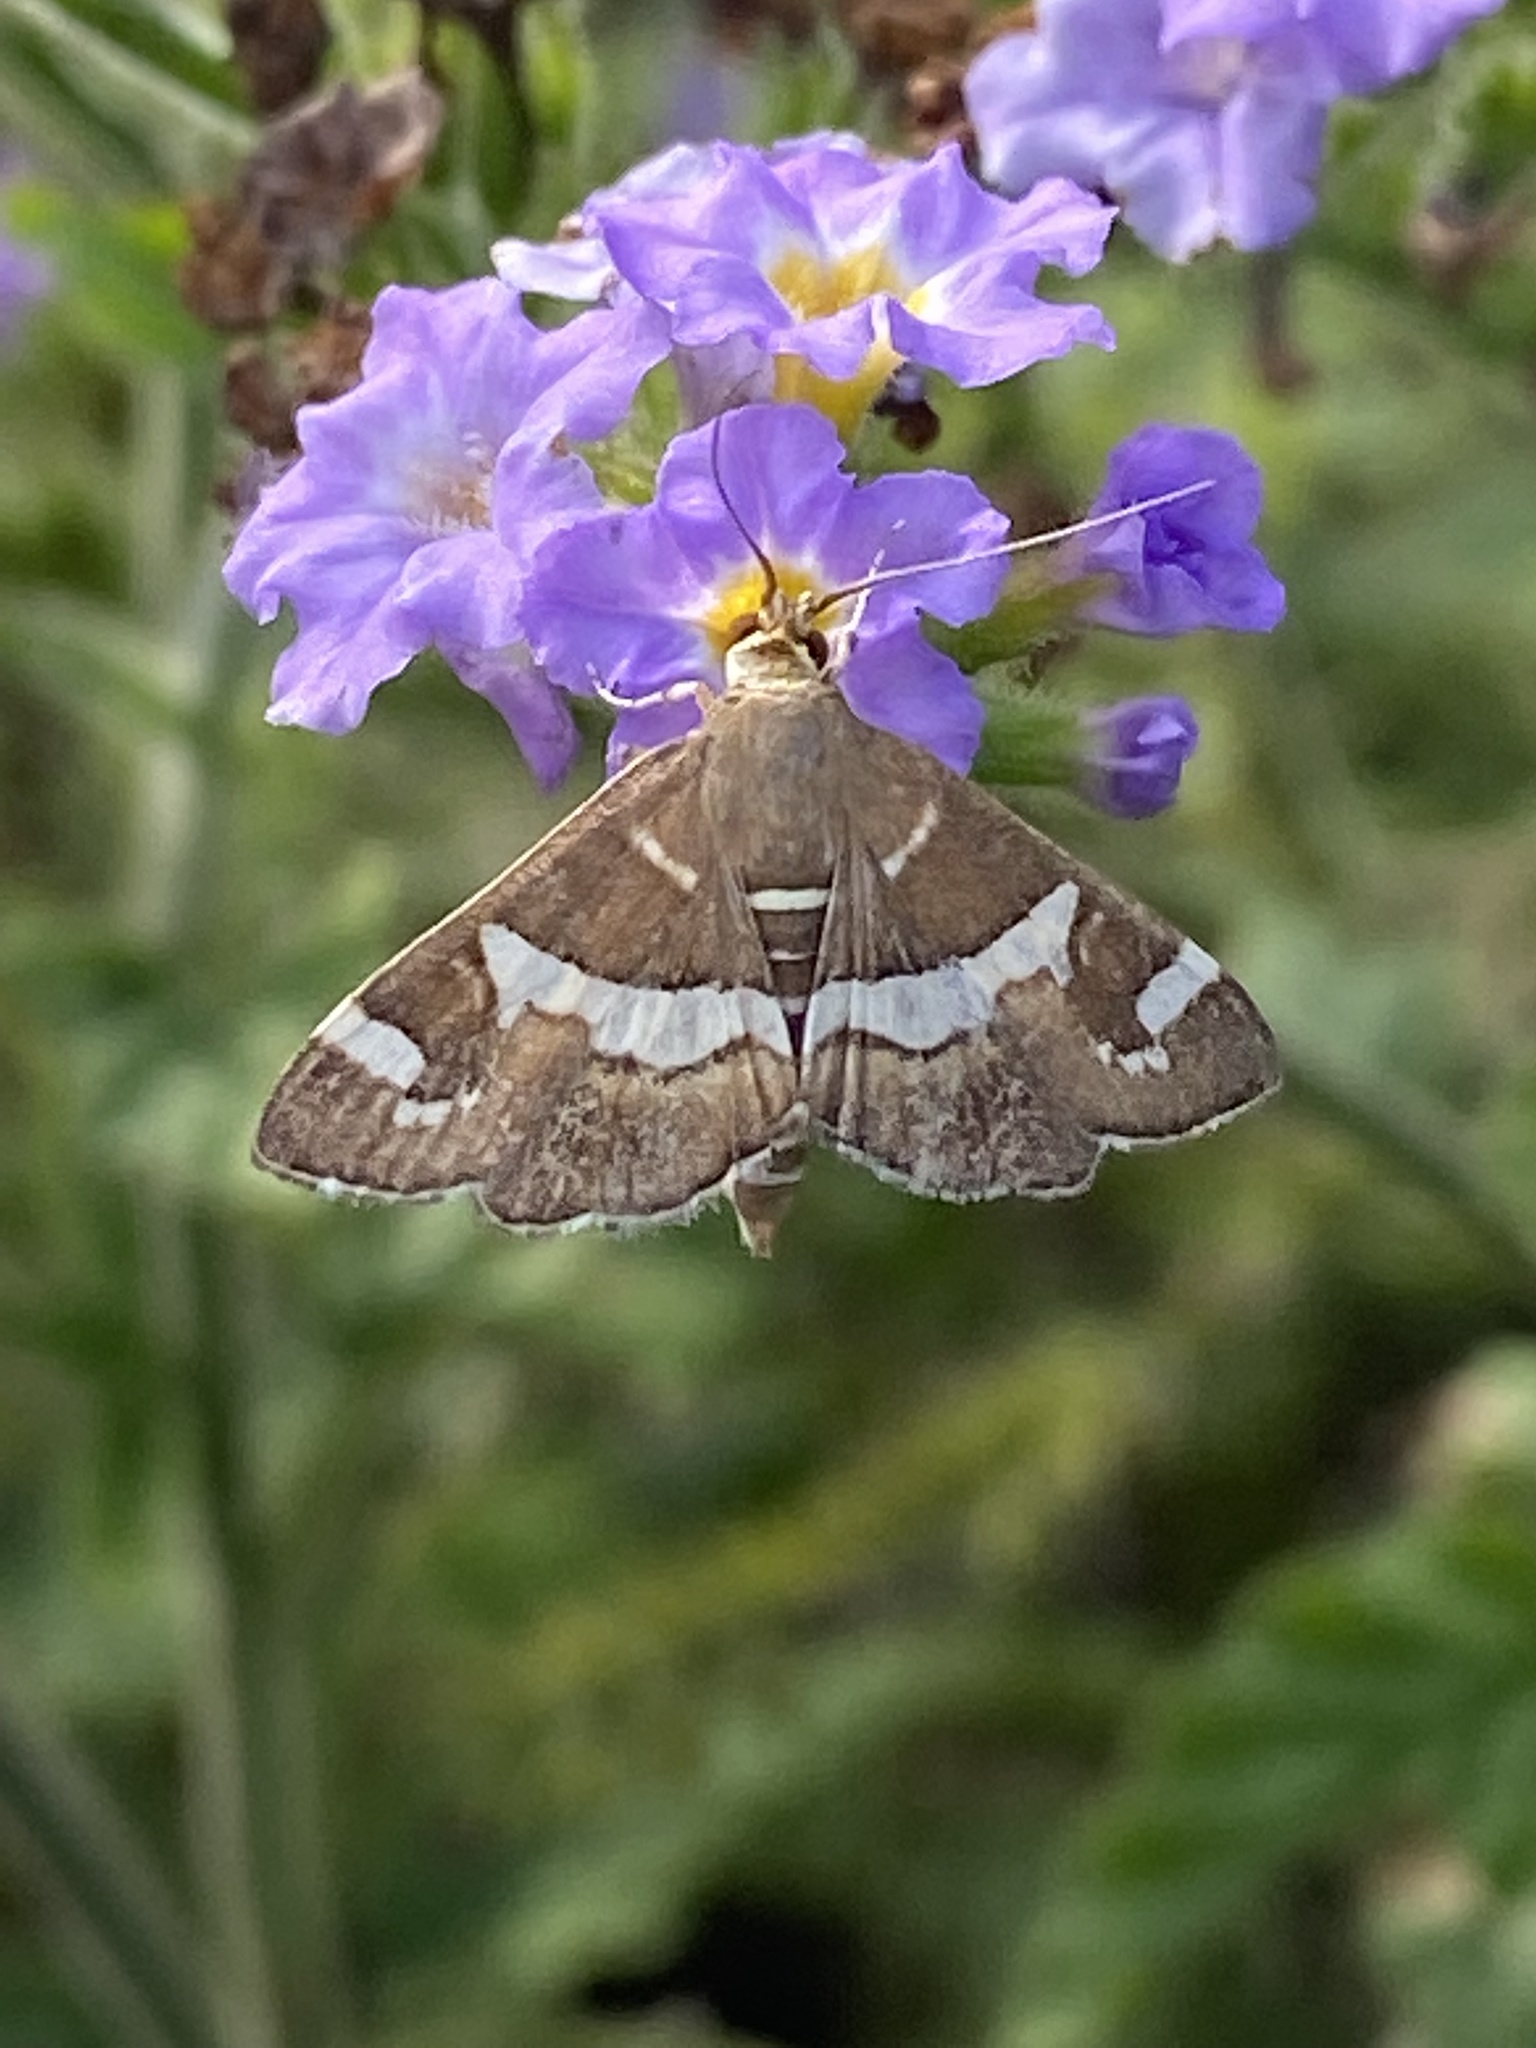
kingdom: Animalia
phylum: Arthropoda
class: Insecta
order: Lepidoptera
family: Crambidae
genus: Spoladea
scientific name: Spoladea recurvalis
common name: Beet webworm moth
